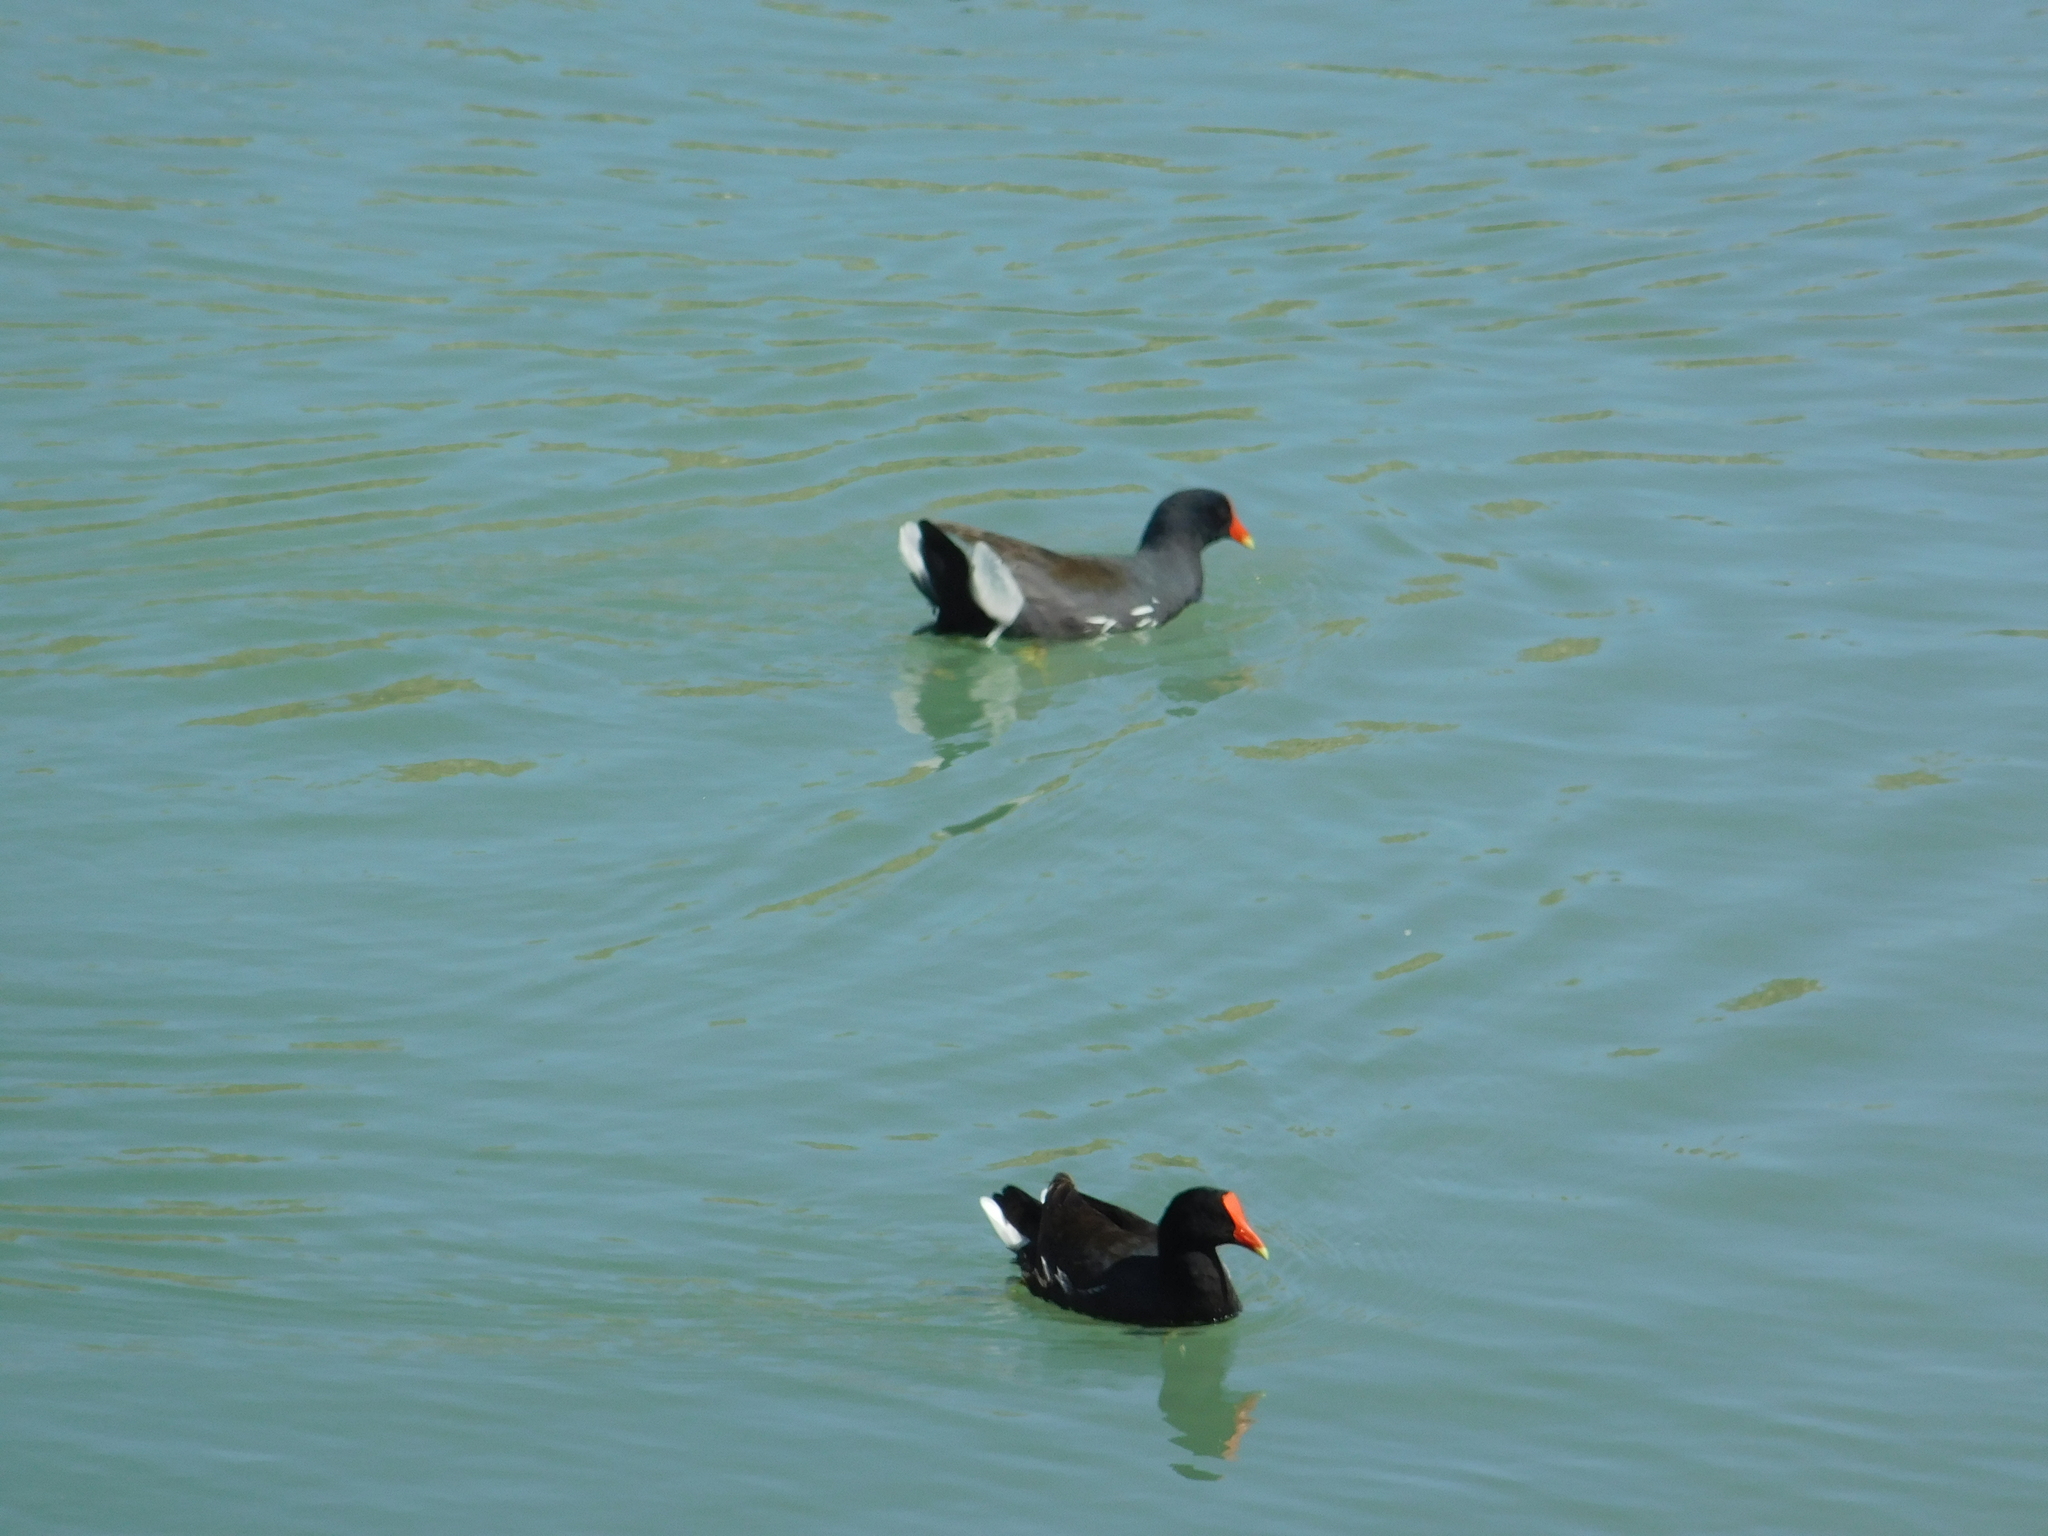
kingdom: Animalia
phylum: Chordata
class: Aves
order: Gruiformes
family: Rallidae
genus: Gallinula
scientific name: Gallinula chloropus
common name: Common moorhen
